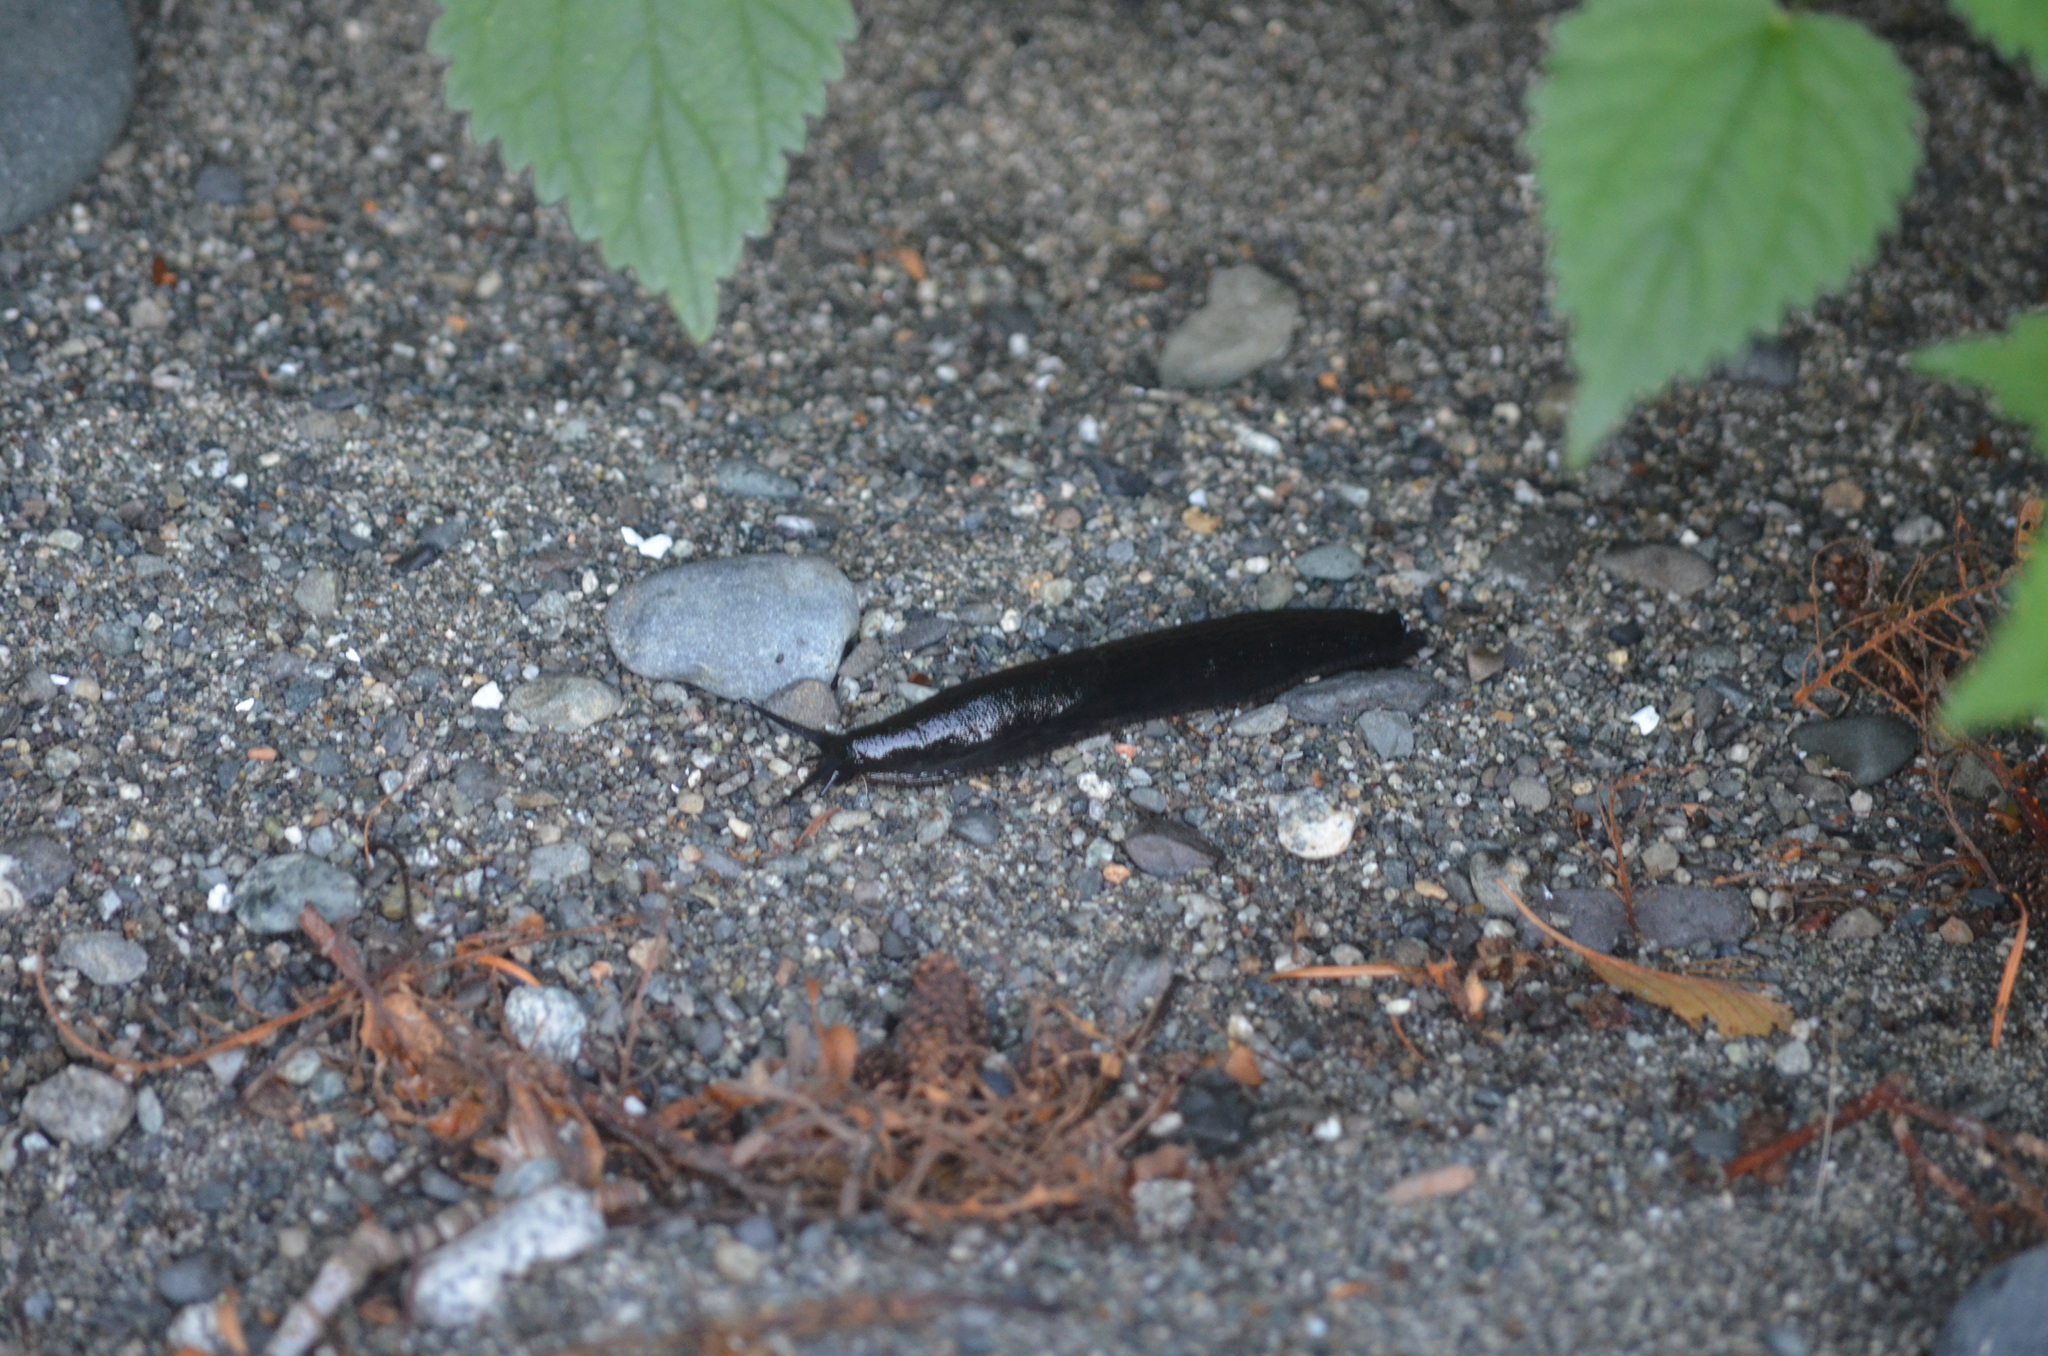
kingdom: Animalia
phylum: Mollusca
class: Gastropoda
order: Stylommatophora
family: Arionidae
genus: Arion
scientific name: Arion
